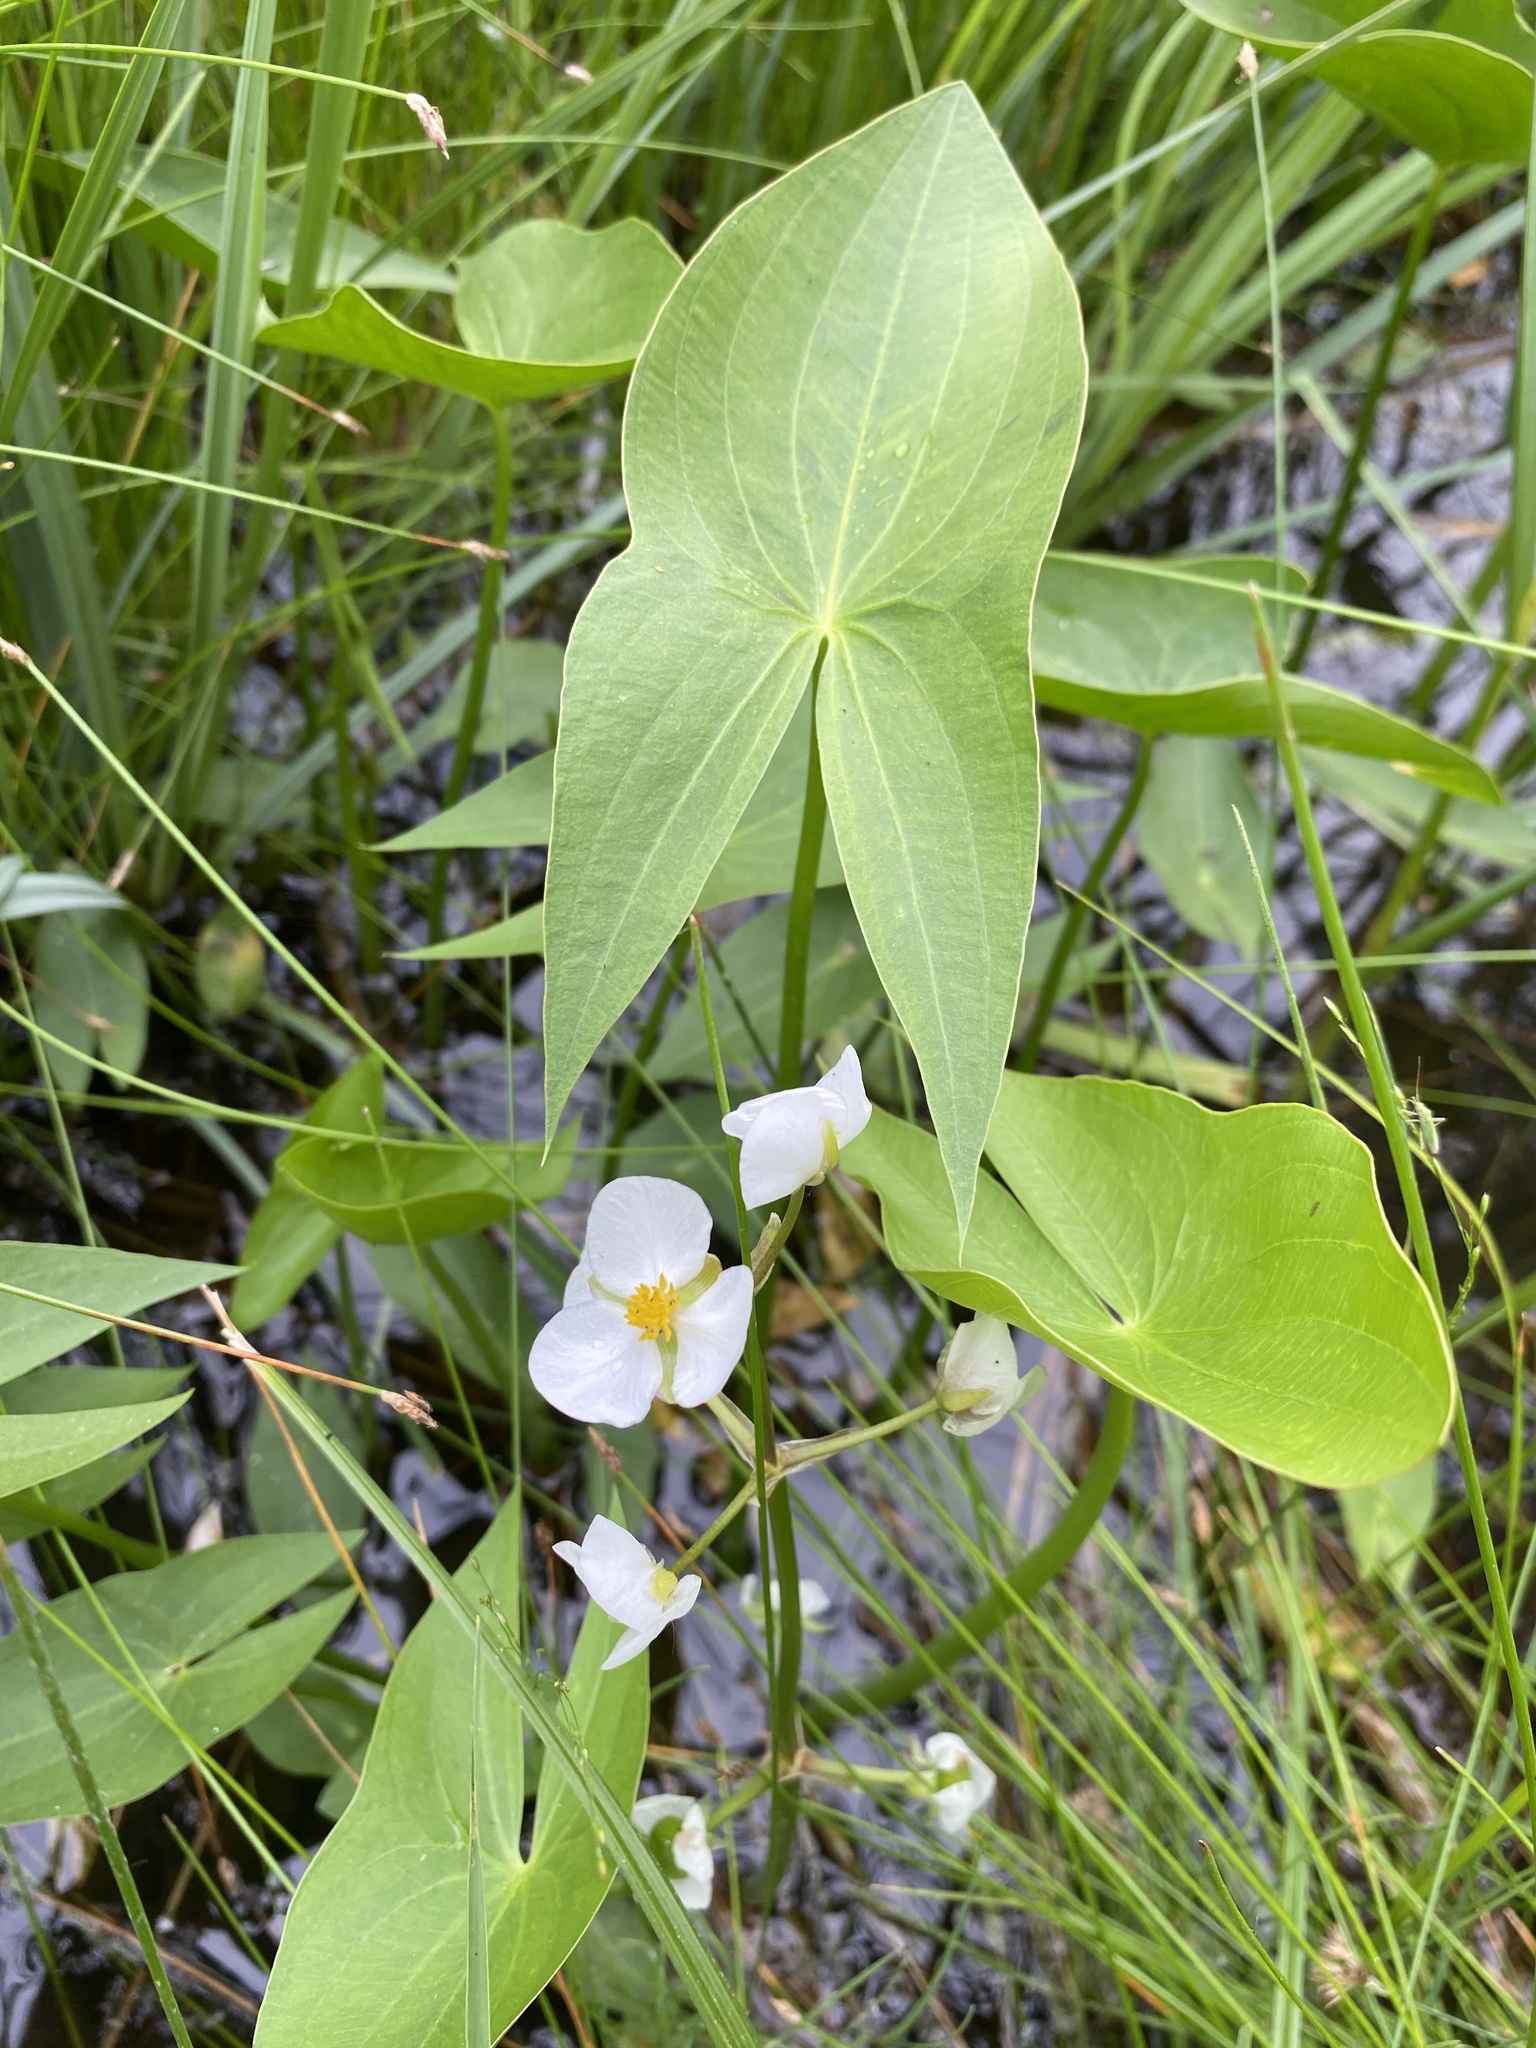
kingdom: Plantae
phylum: Tracheophyta
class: Liliopsida
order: Alismatales
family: Alismataceae
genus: Sagittaria
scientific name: Sagittaria cuneata
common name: Northern arrowhead
